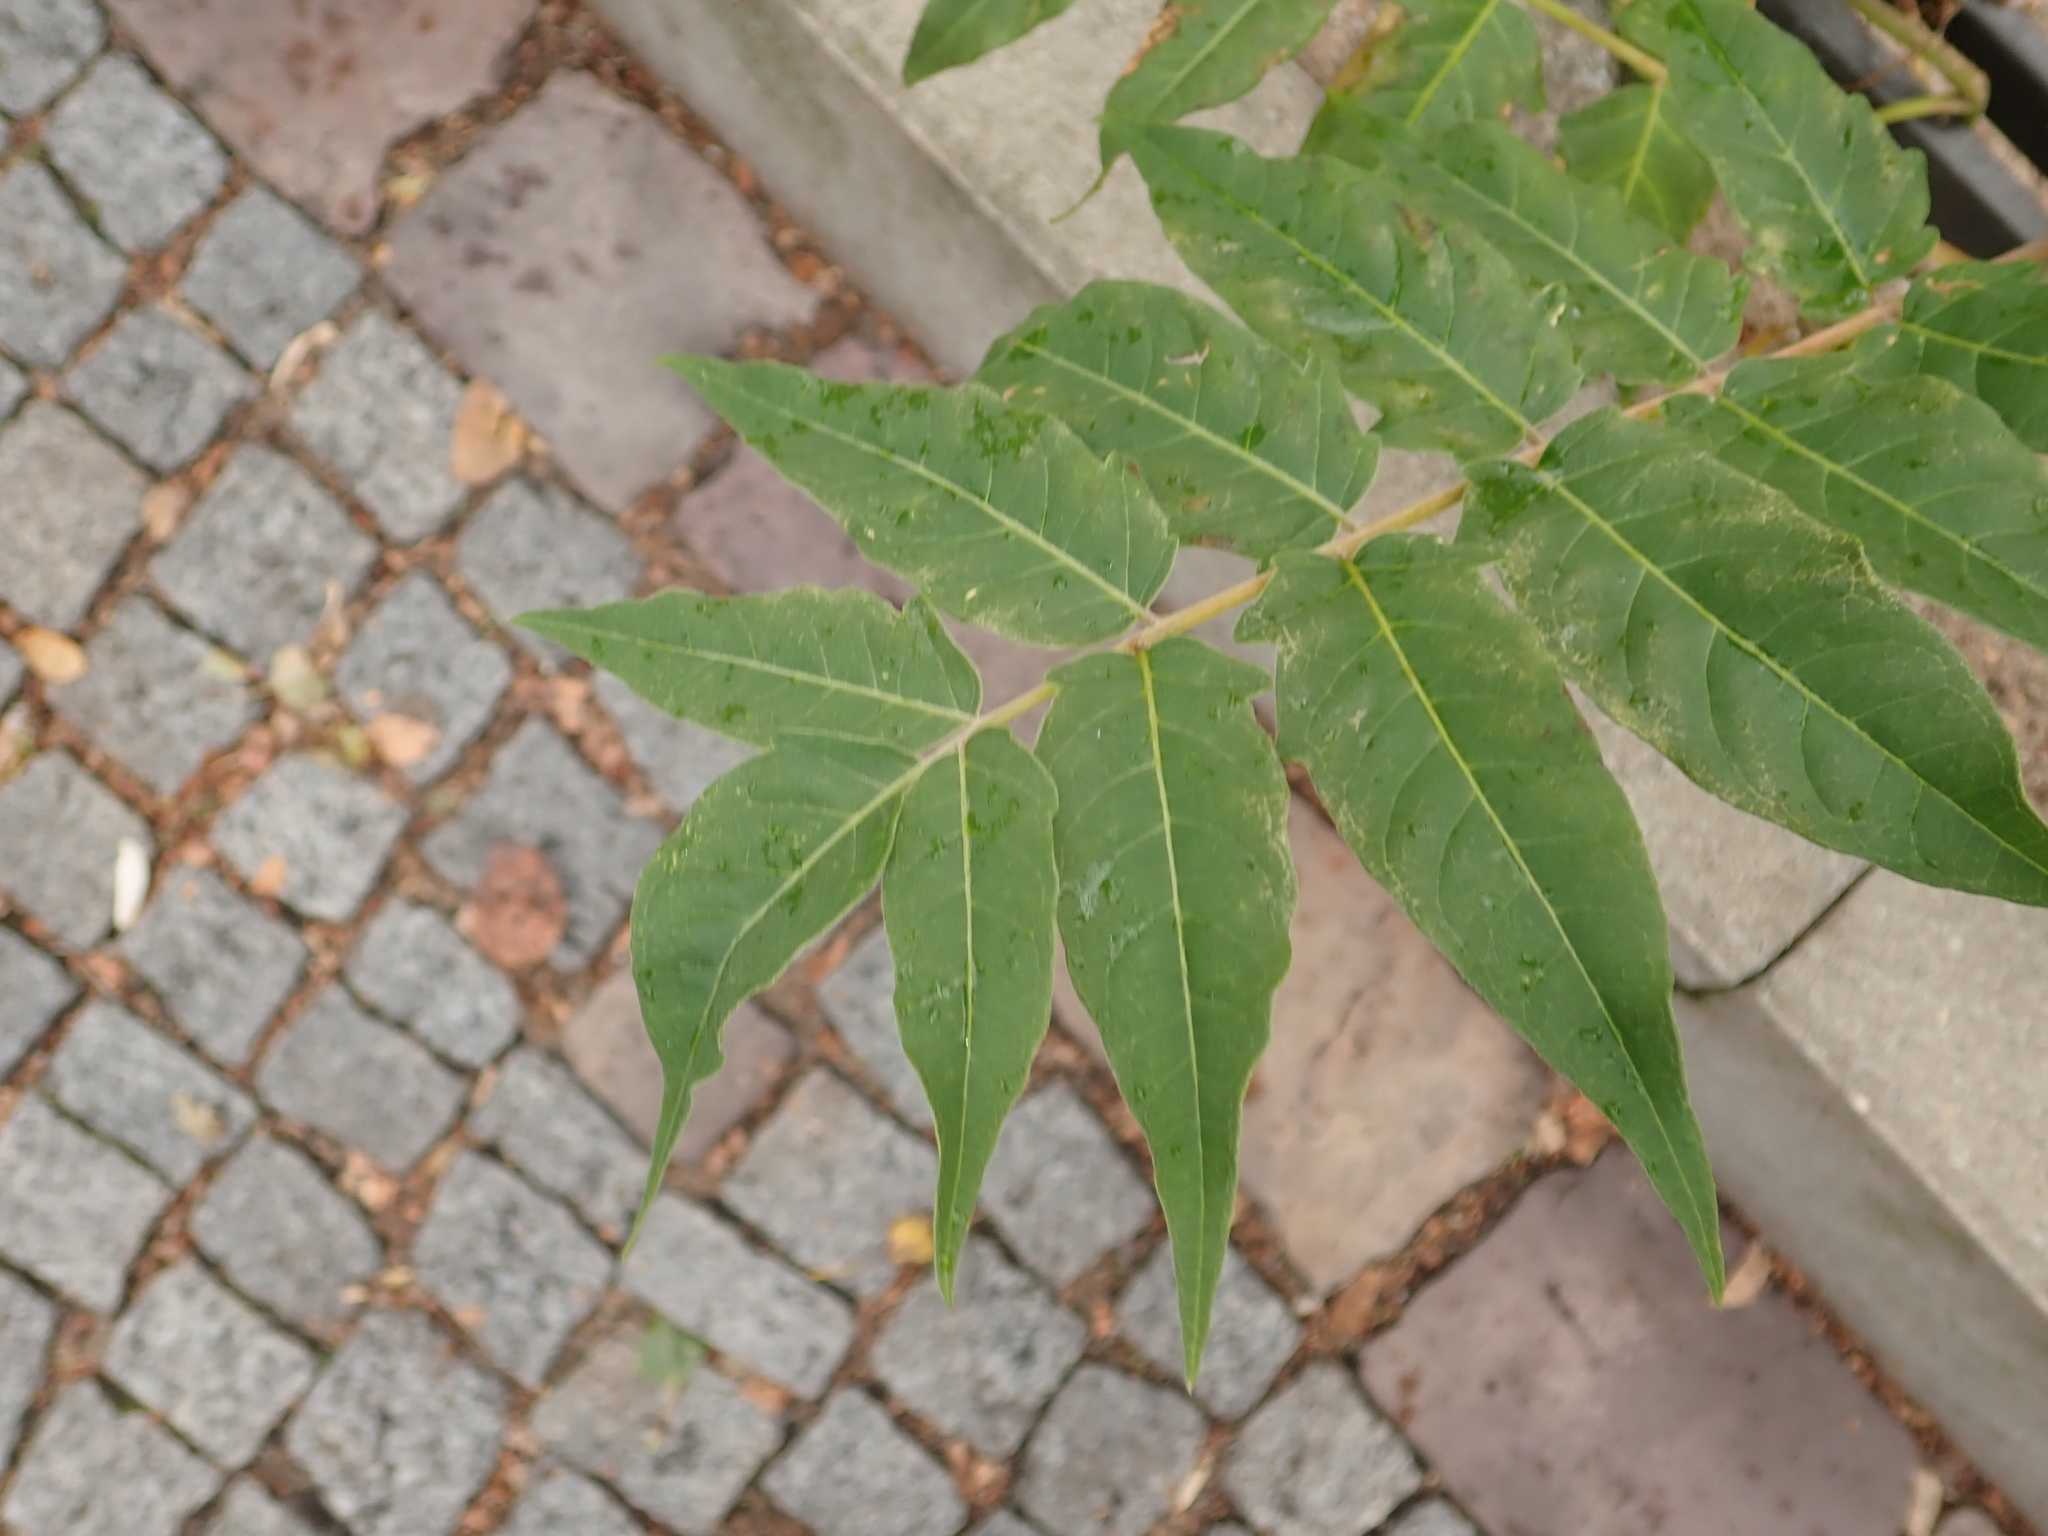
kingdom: Plantae
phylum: Tracheophyta
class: Magnoliopsida
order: Sapindales
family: Simaroubaceae
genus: Ailanthus
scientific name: Ailanthus altissima
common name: Tree-of-heaven
